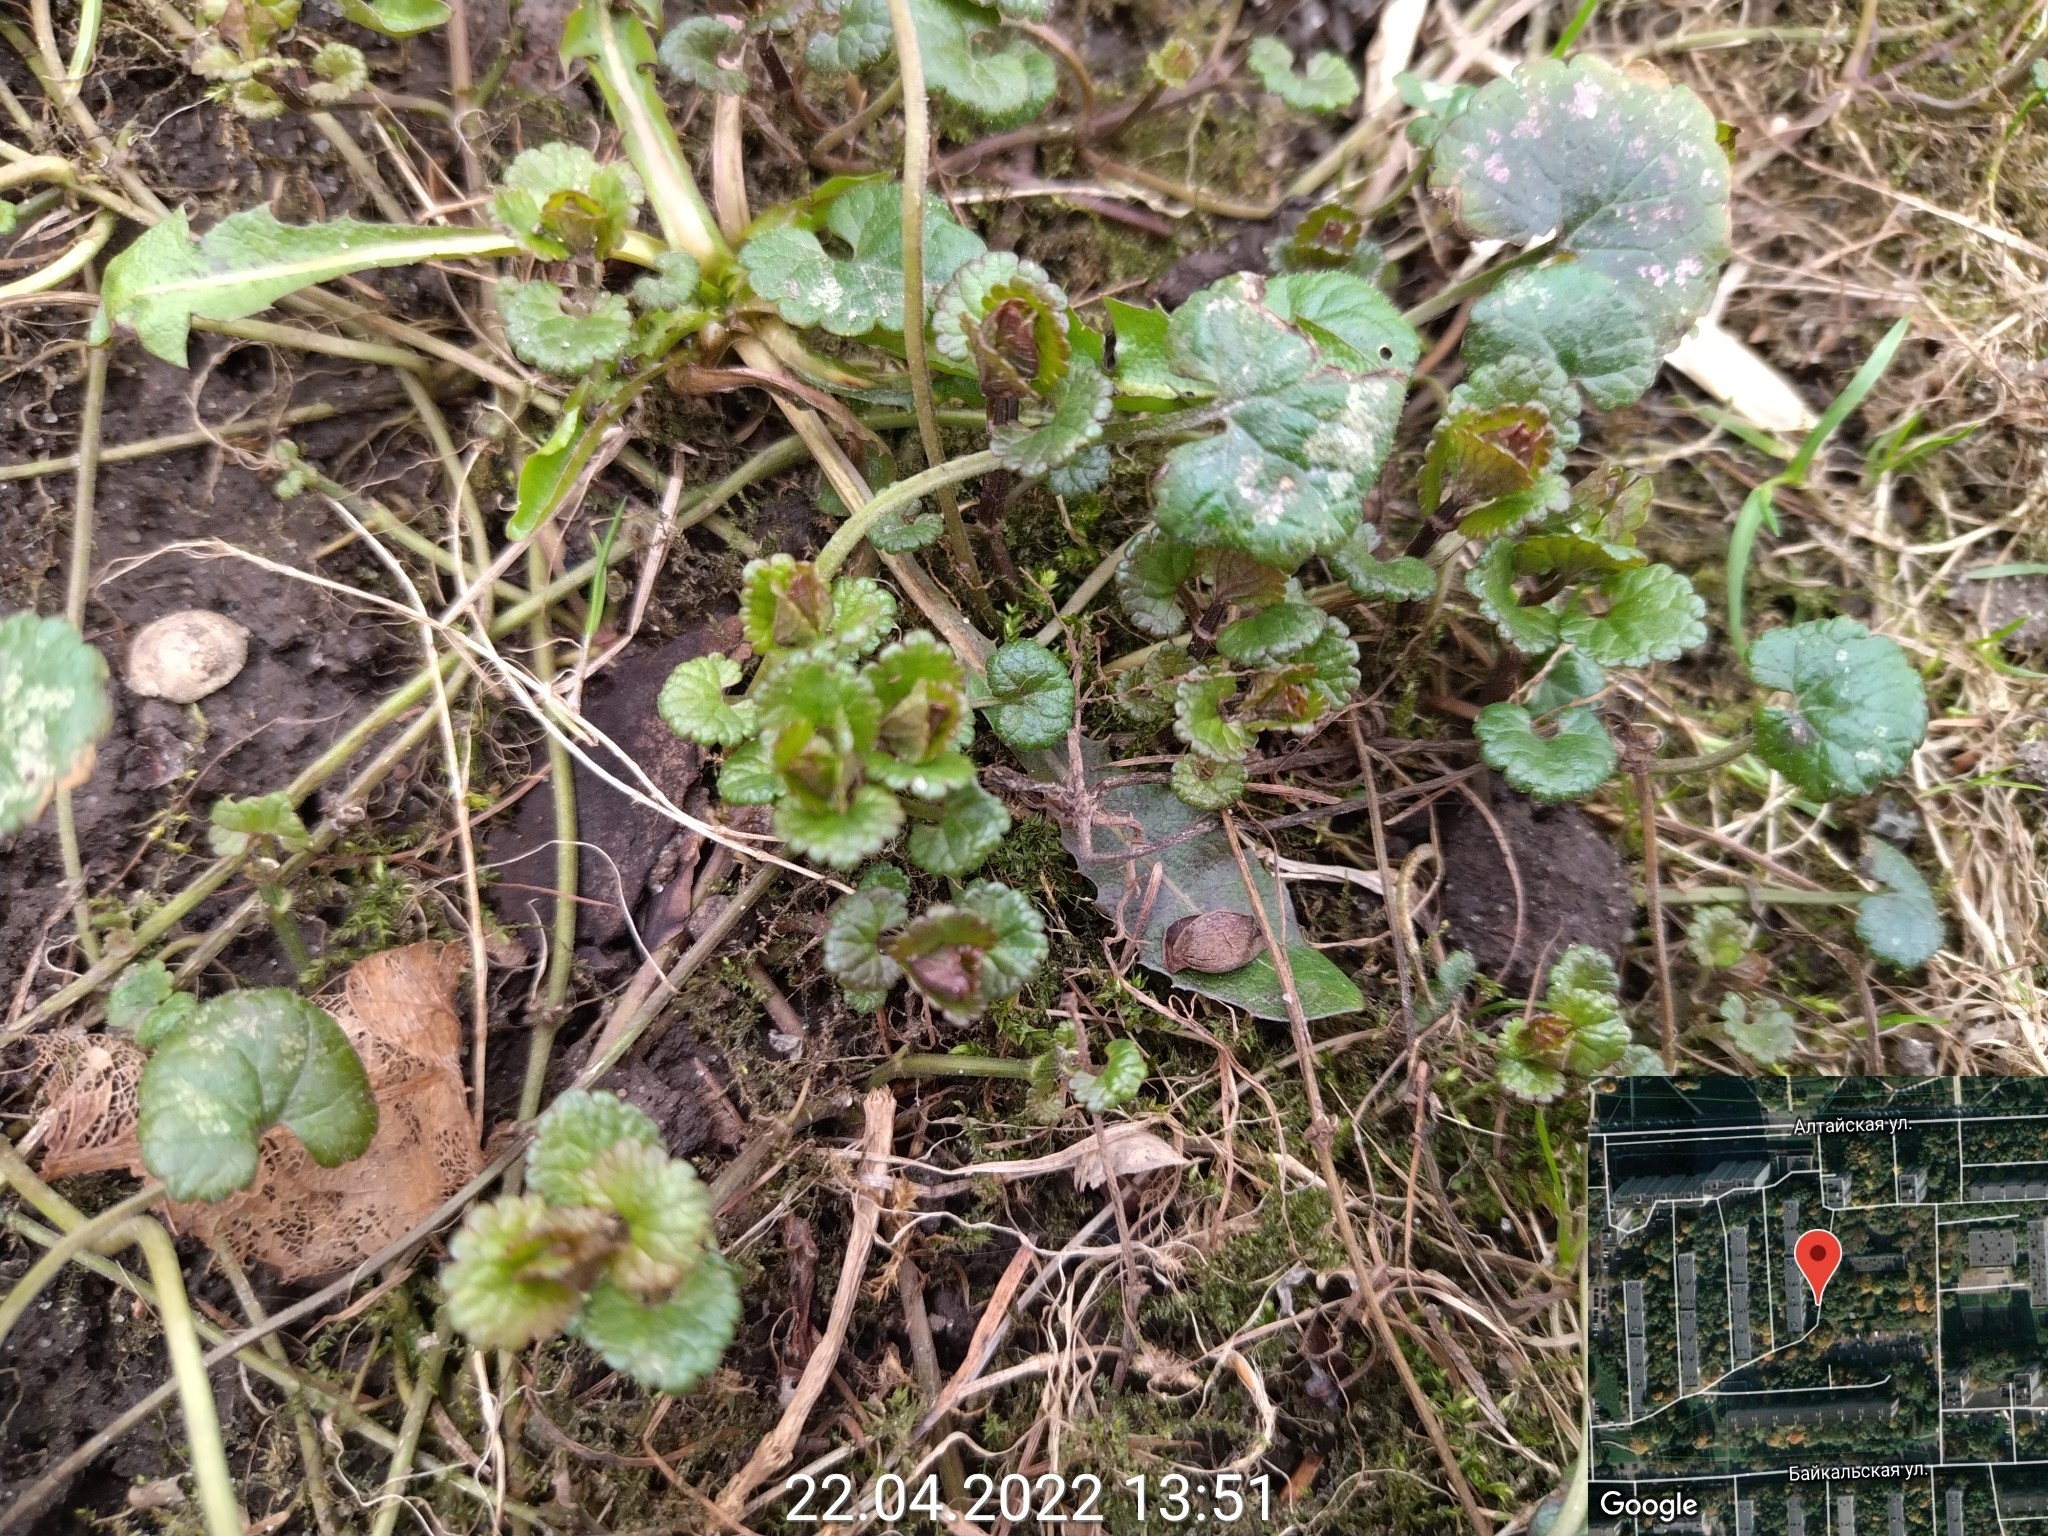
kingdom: Plantae
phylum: Tracheophyta
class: Magnoliopsida
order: Lamiales
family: Lamiaceae
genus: Glechoma
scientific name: Glechoma hederacea
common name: Ground ivy
